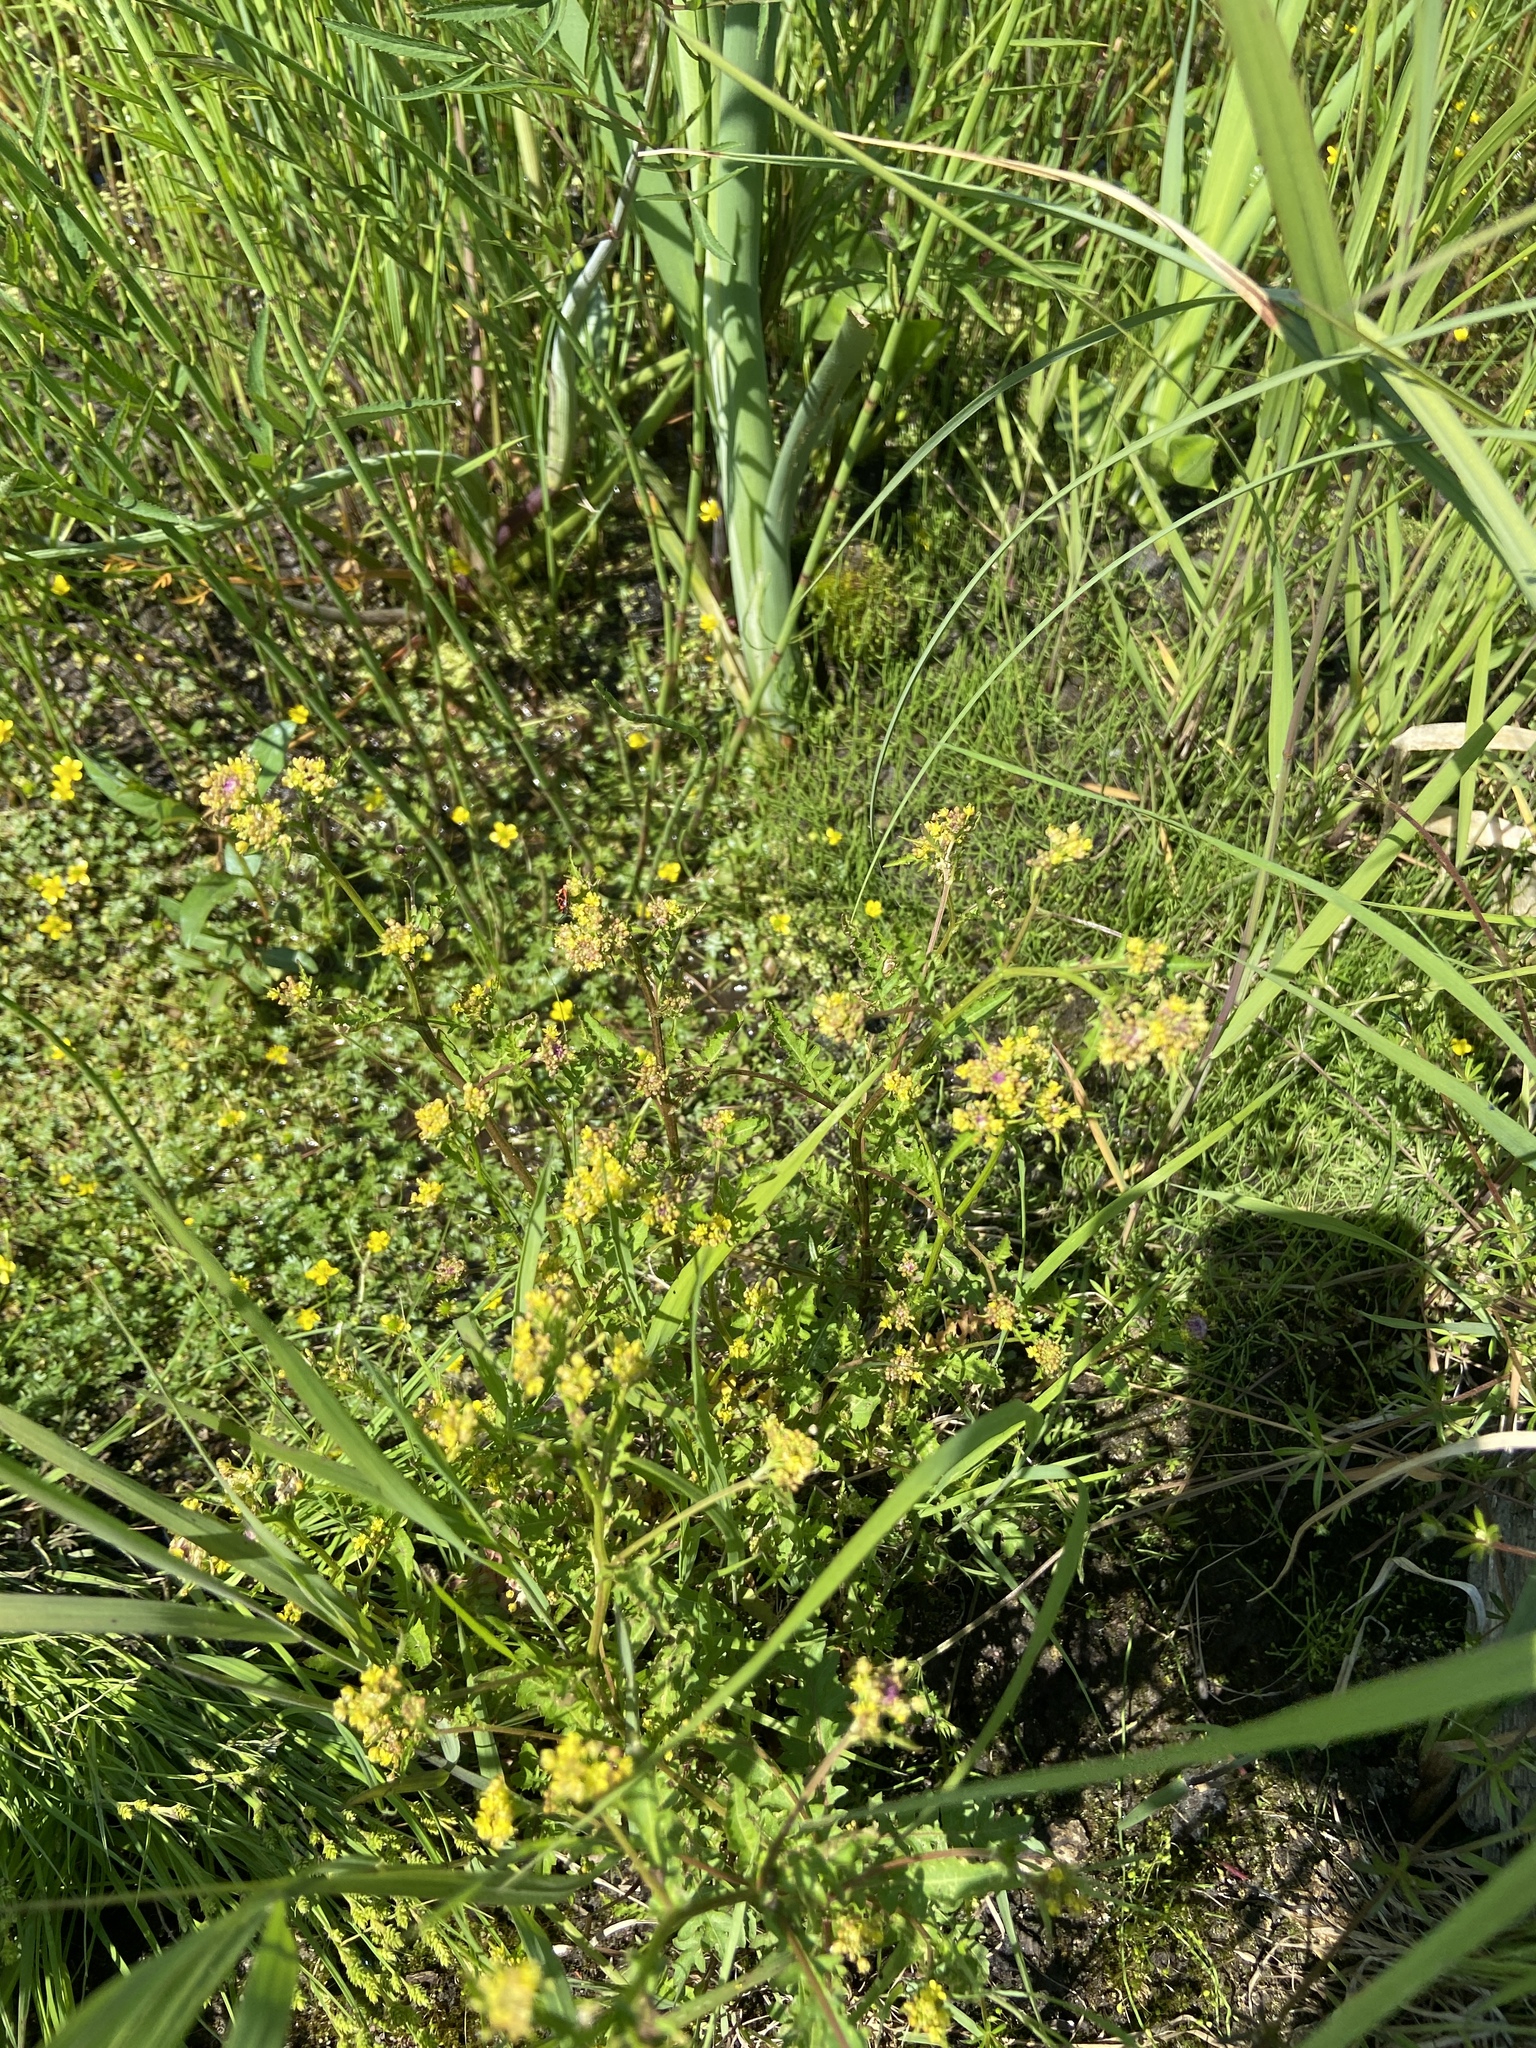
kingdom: Plantae
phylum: Tracheophyta
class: Magnoliopsida
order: Ranunculales
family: Ranunculaceae
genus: Ranunculus
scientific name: Ranunculus gmelinii
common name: Gmelin's buttercup
